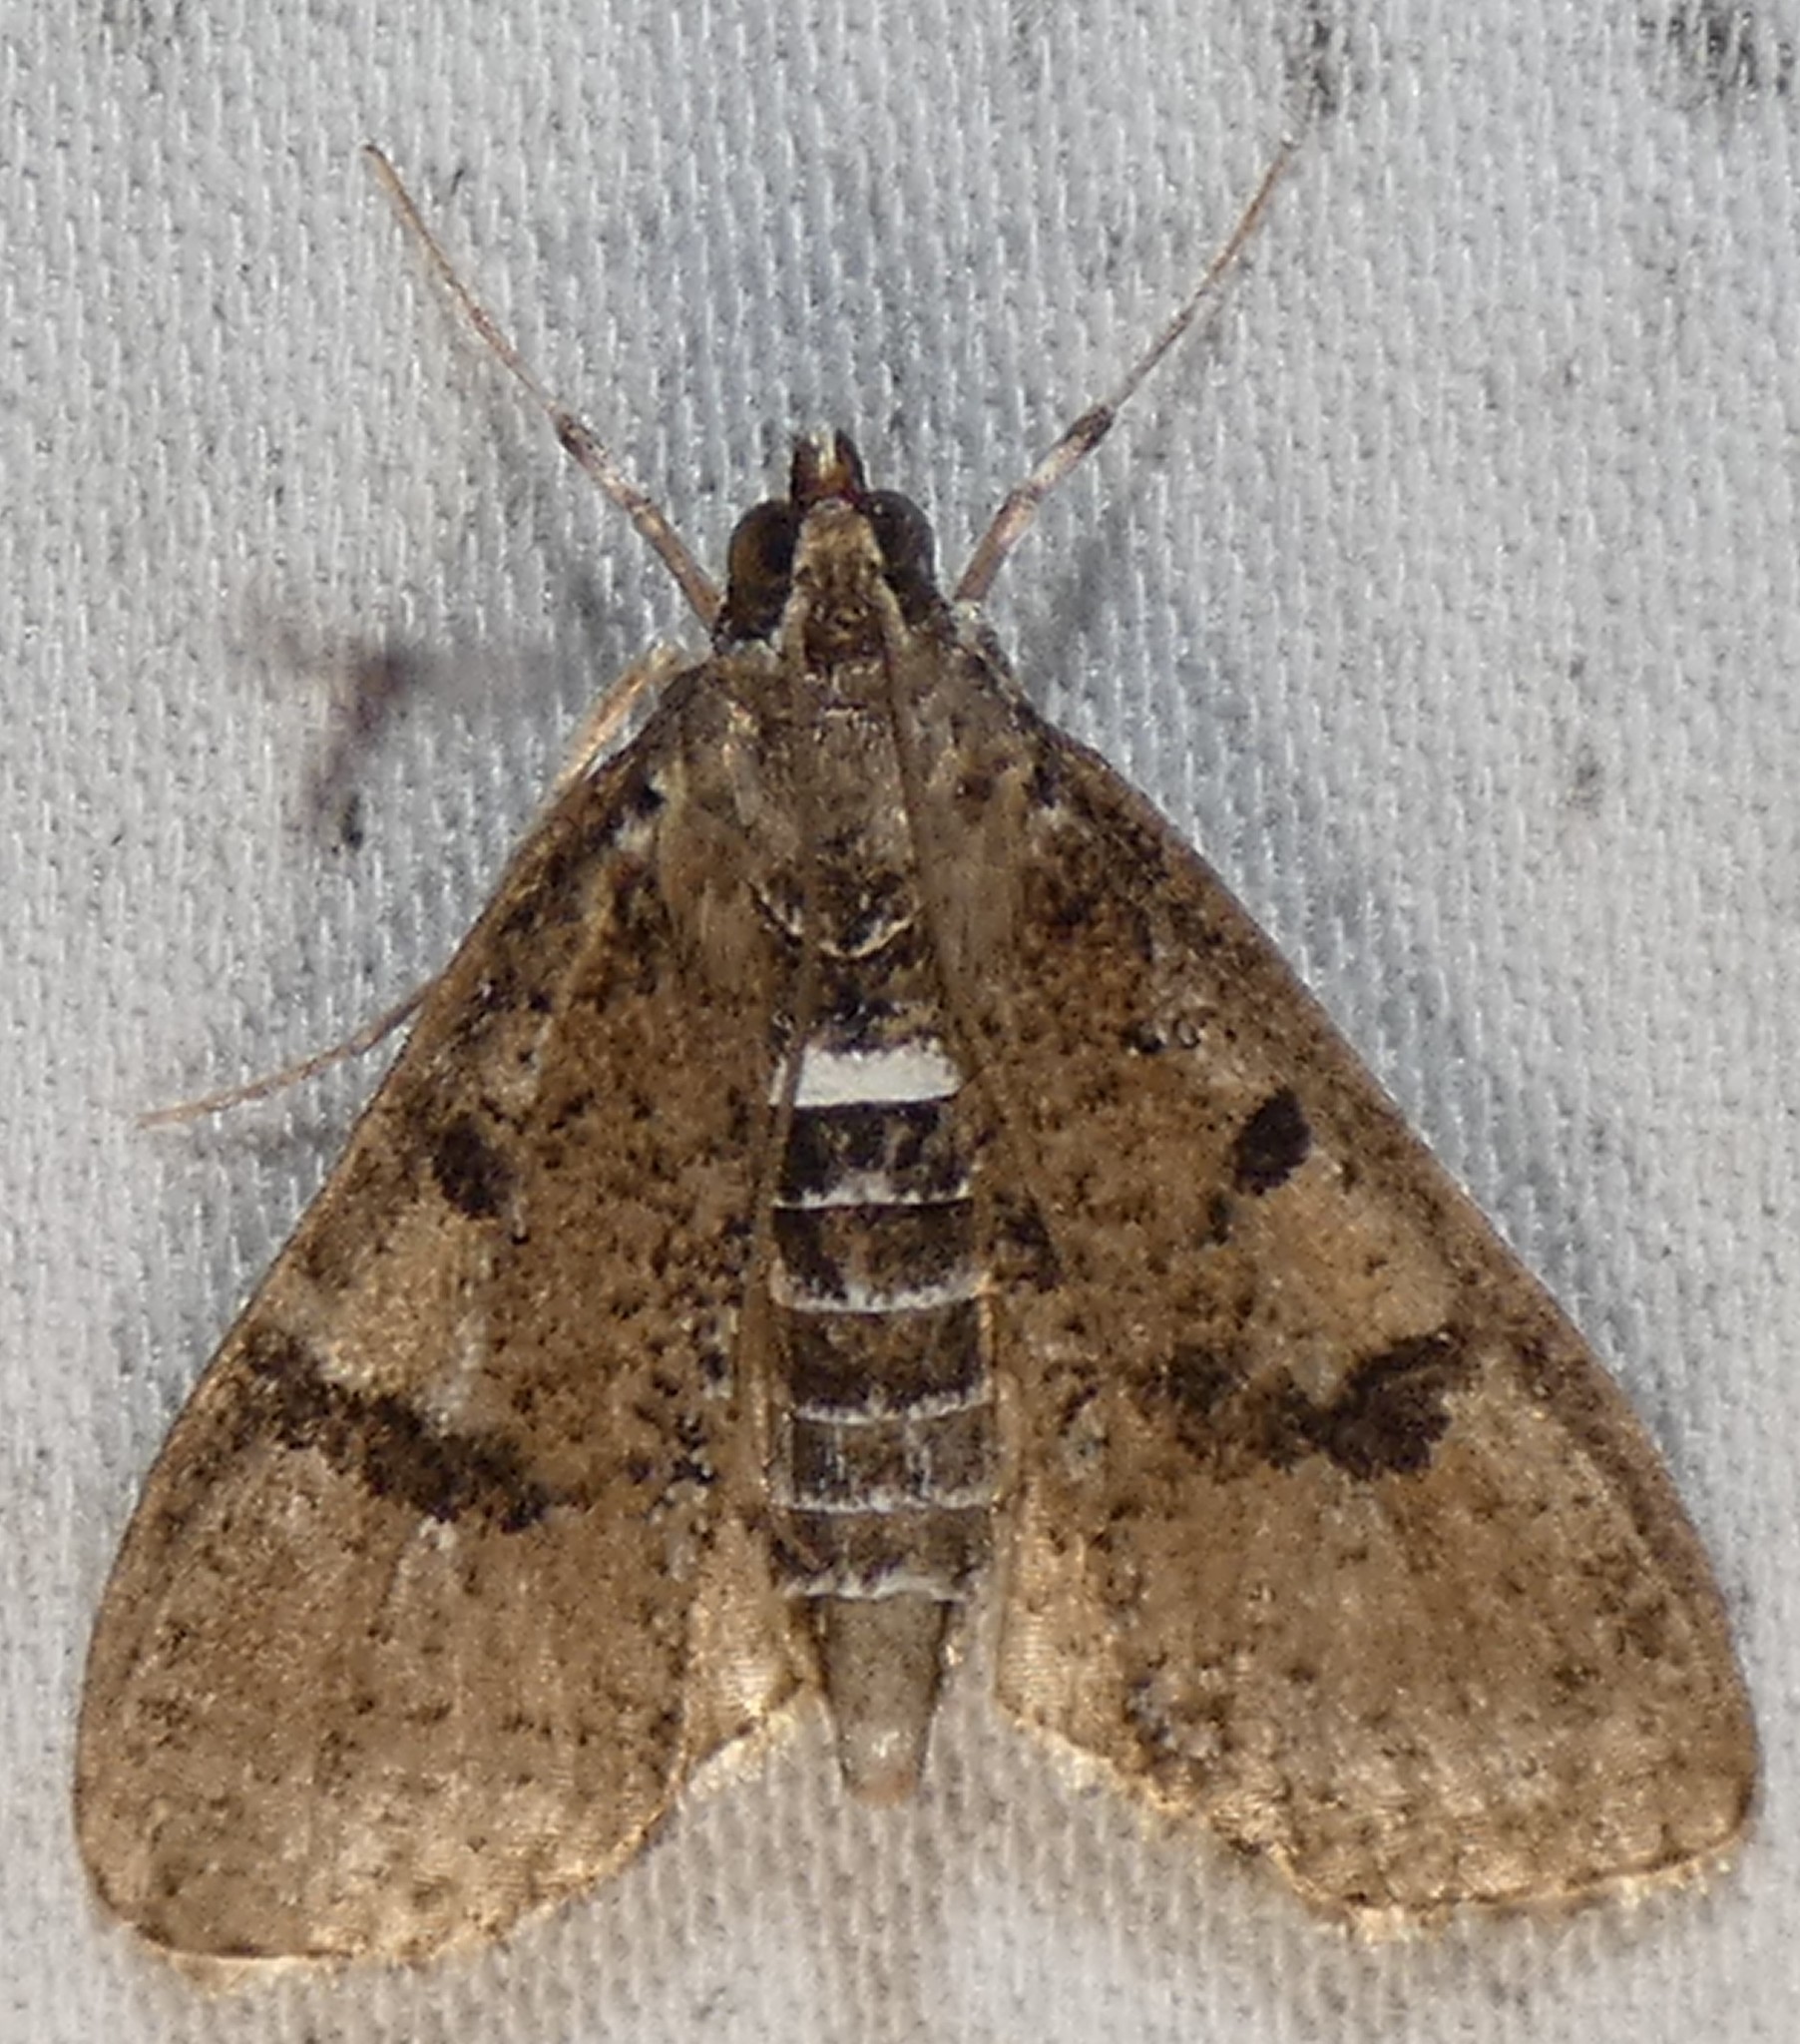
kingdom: Animalia
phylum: Arthropoda
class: Insecta
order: Lepidoptera
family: Crambidae
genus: Palpita
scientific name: Palpita magniferalis
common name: Splendid palpita moth
